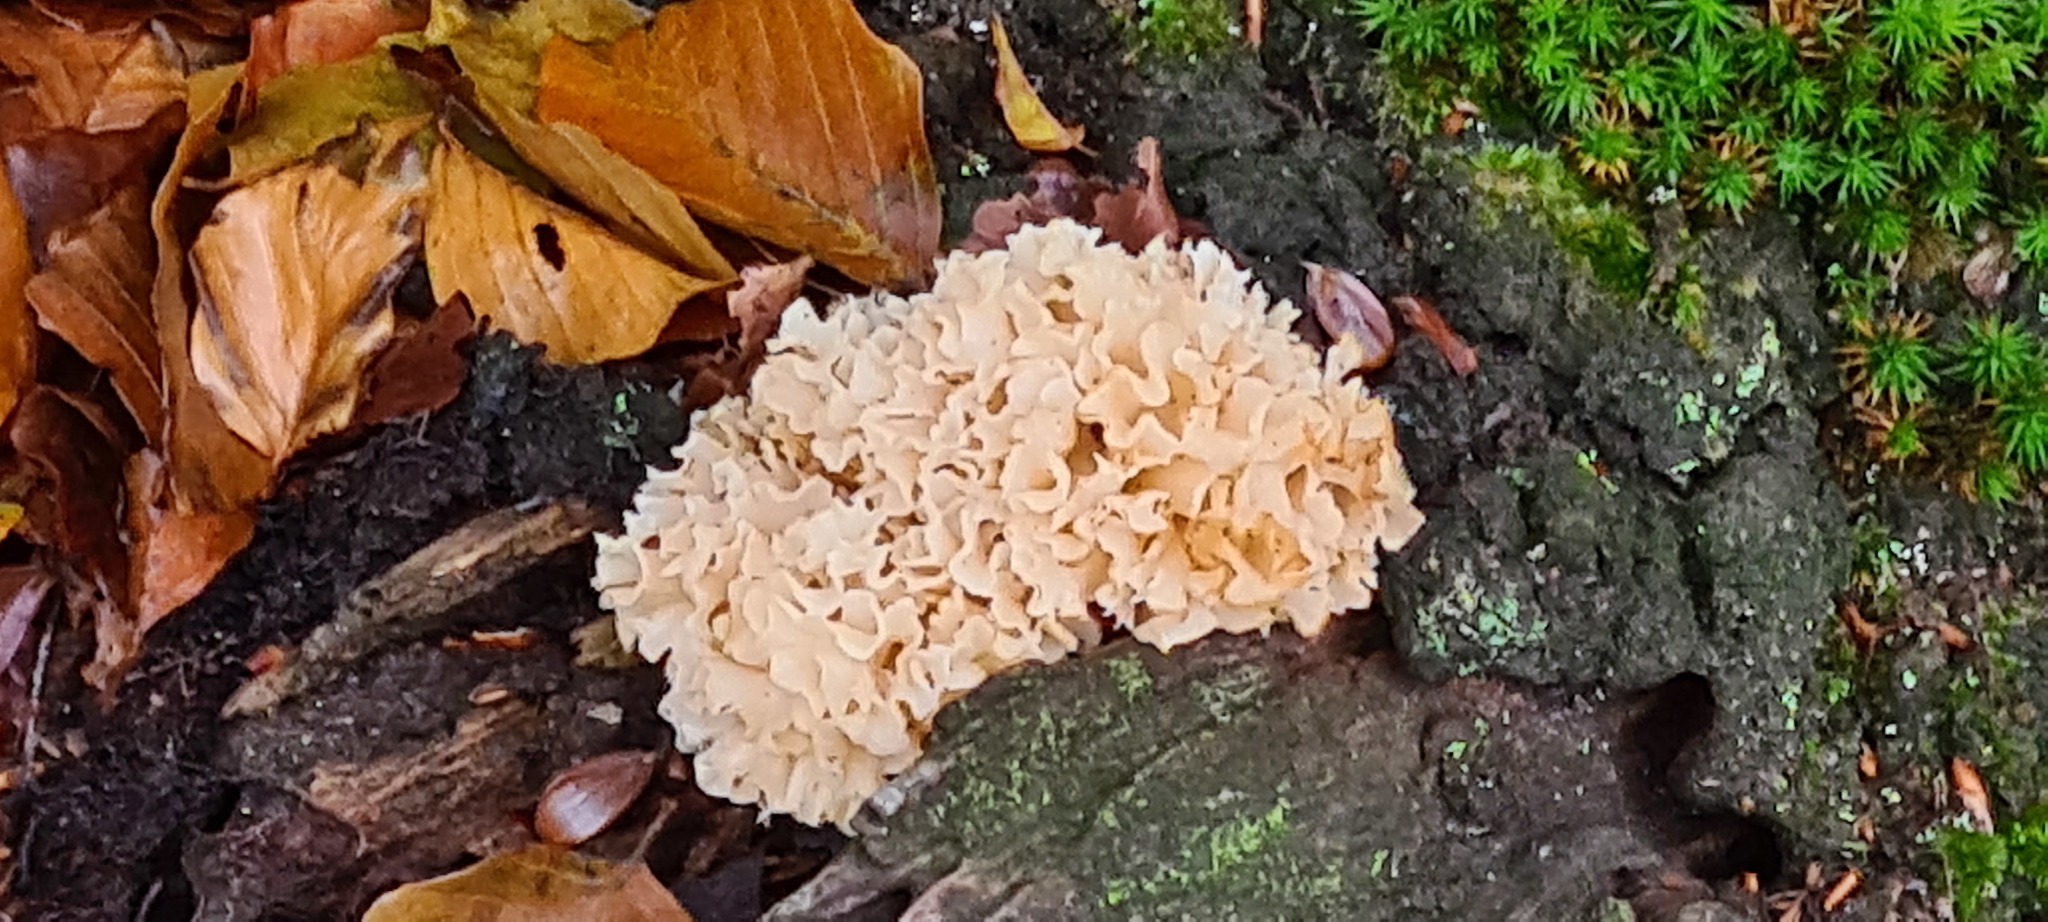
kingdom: Fungi
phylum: Basidiomycota
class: Agaricomycetes
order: Polyporales
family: Sparassidaceae
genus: Sparassis
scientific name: Sparassis crispa
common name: Brain fungus
